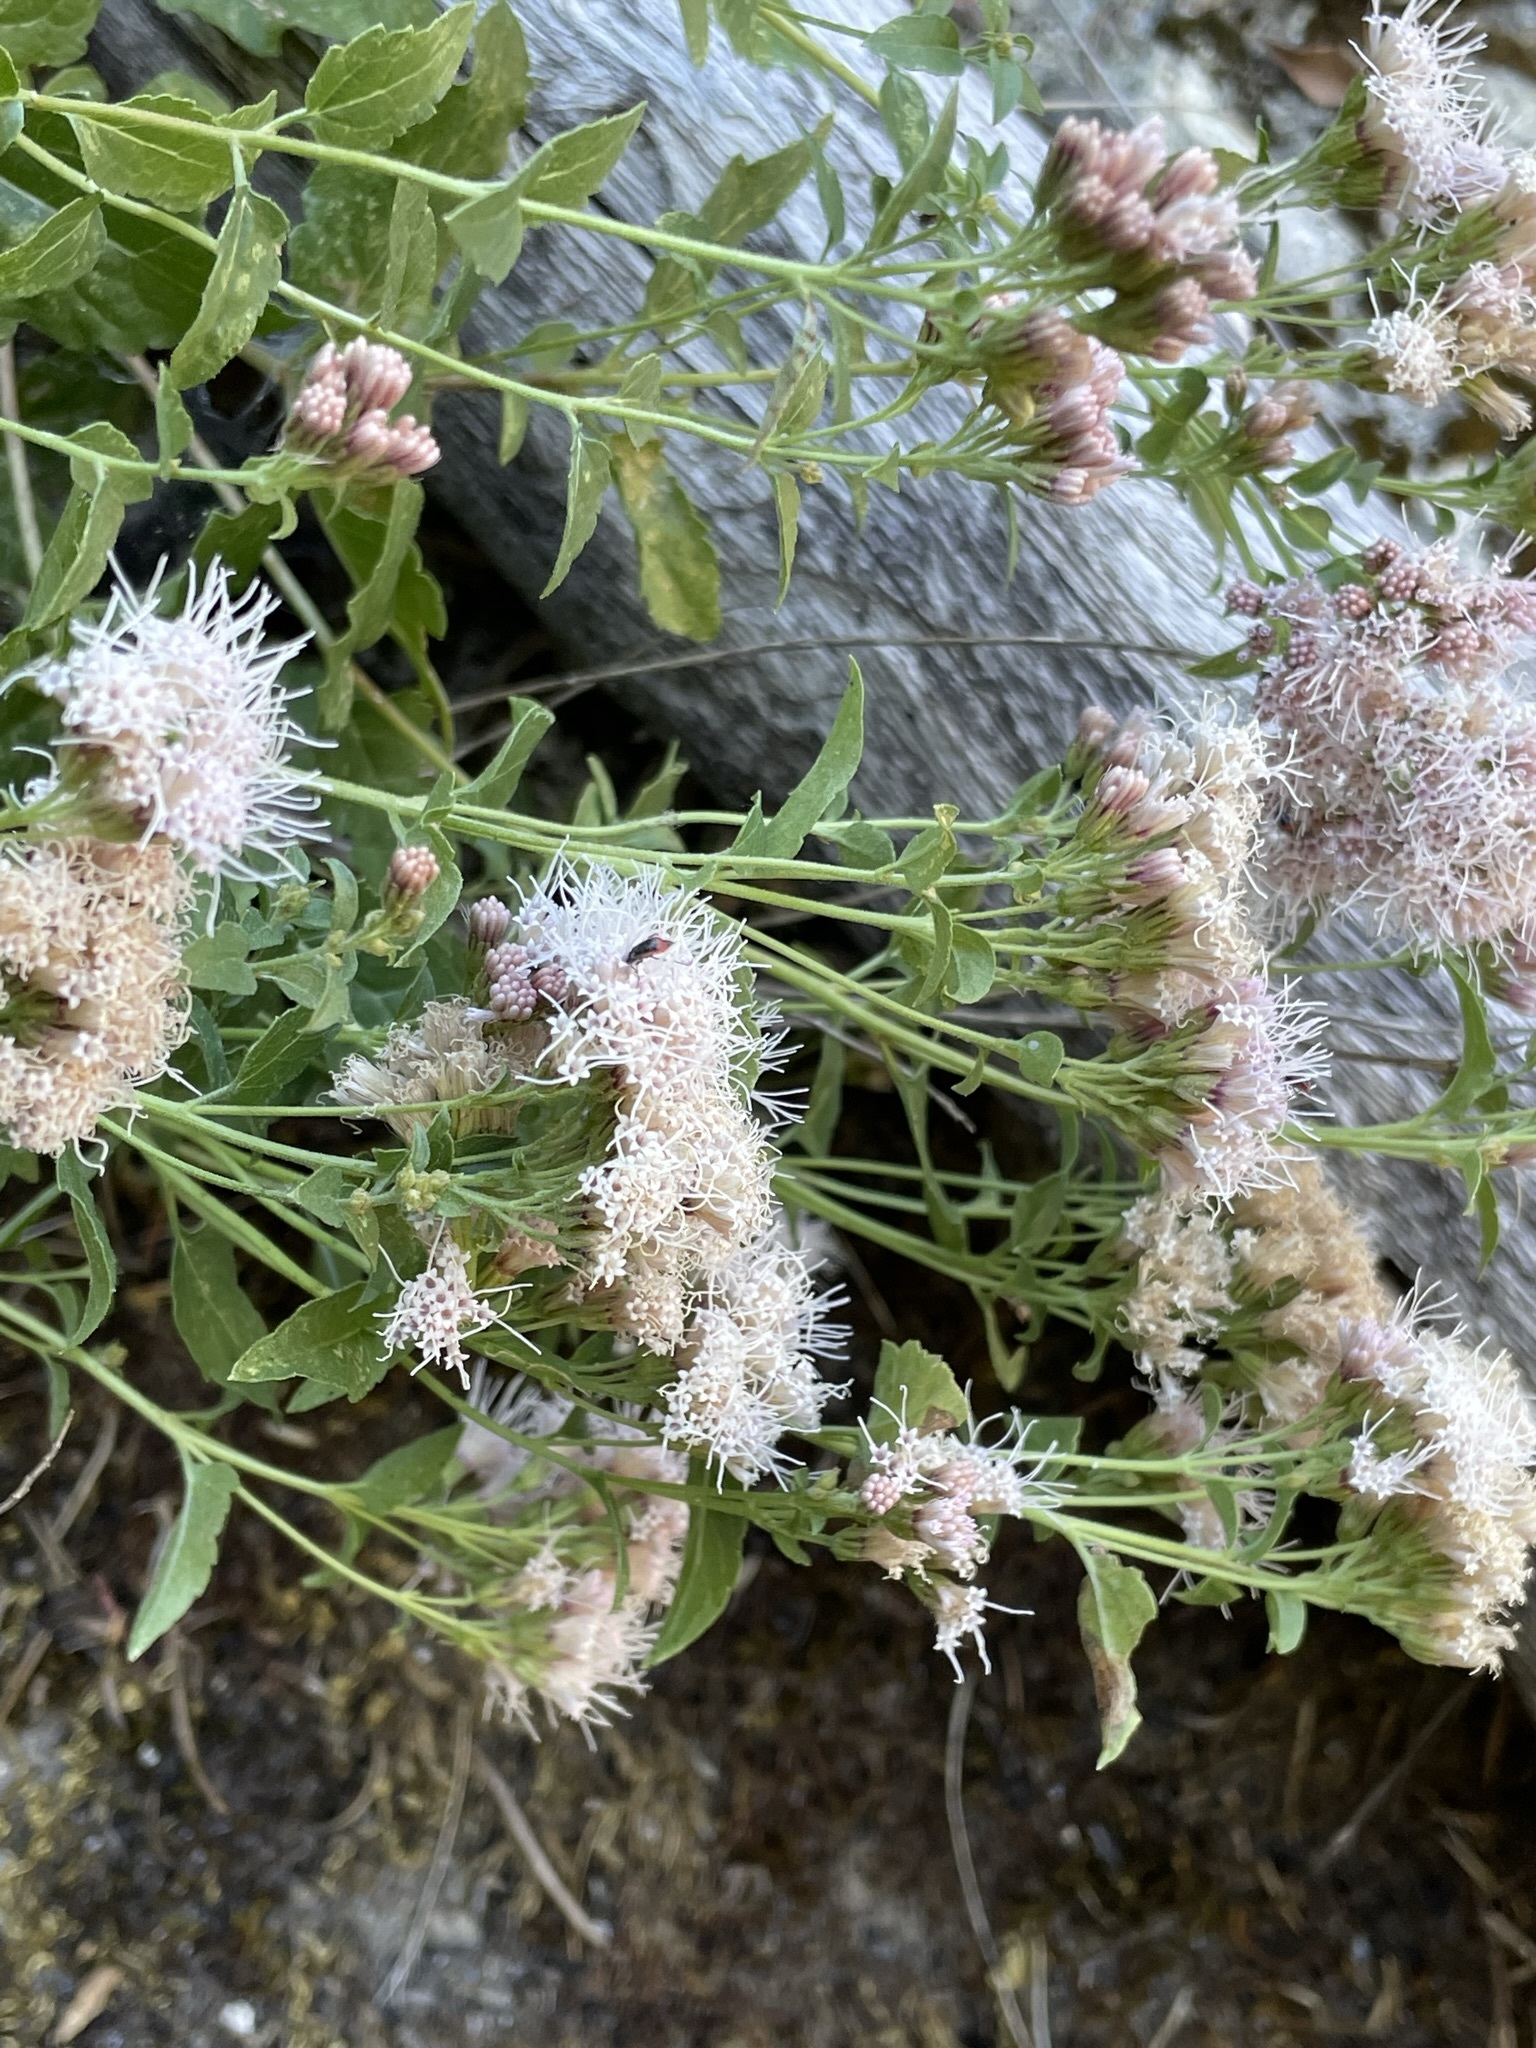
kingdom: Plantae
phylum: Tracheophyta
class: Magnoliopsida
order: Asterales
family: Asteraceae
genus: Ageratina
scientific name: Ageratina occidentalis
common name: Western snakeroot
